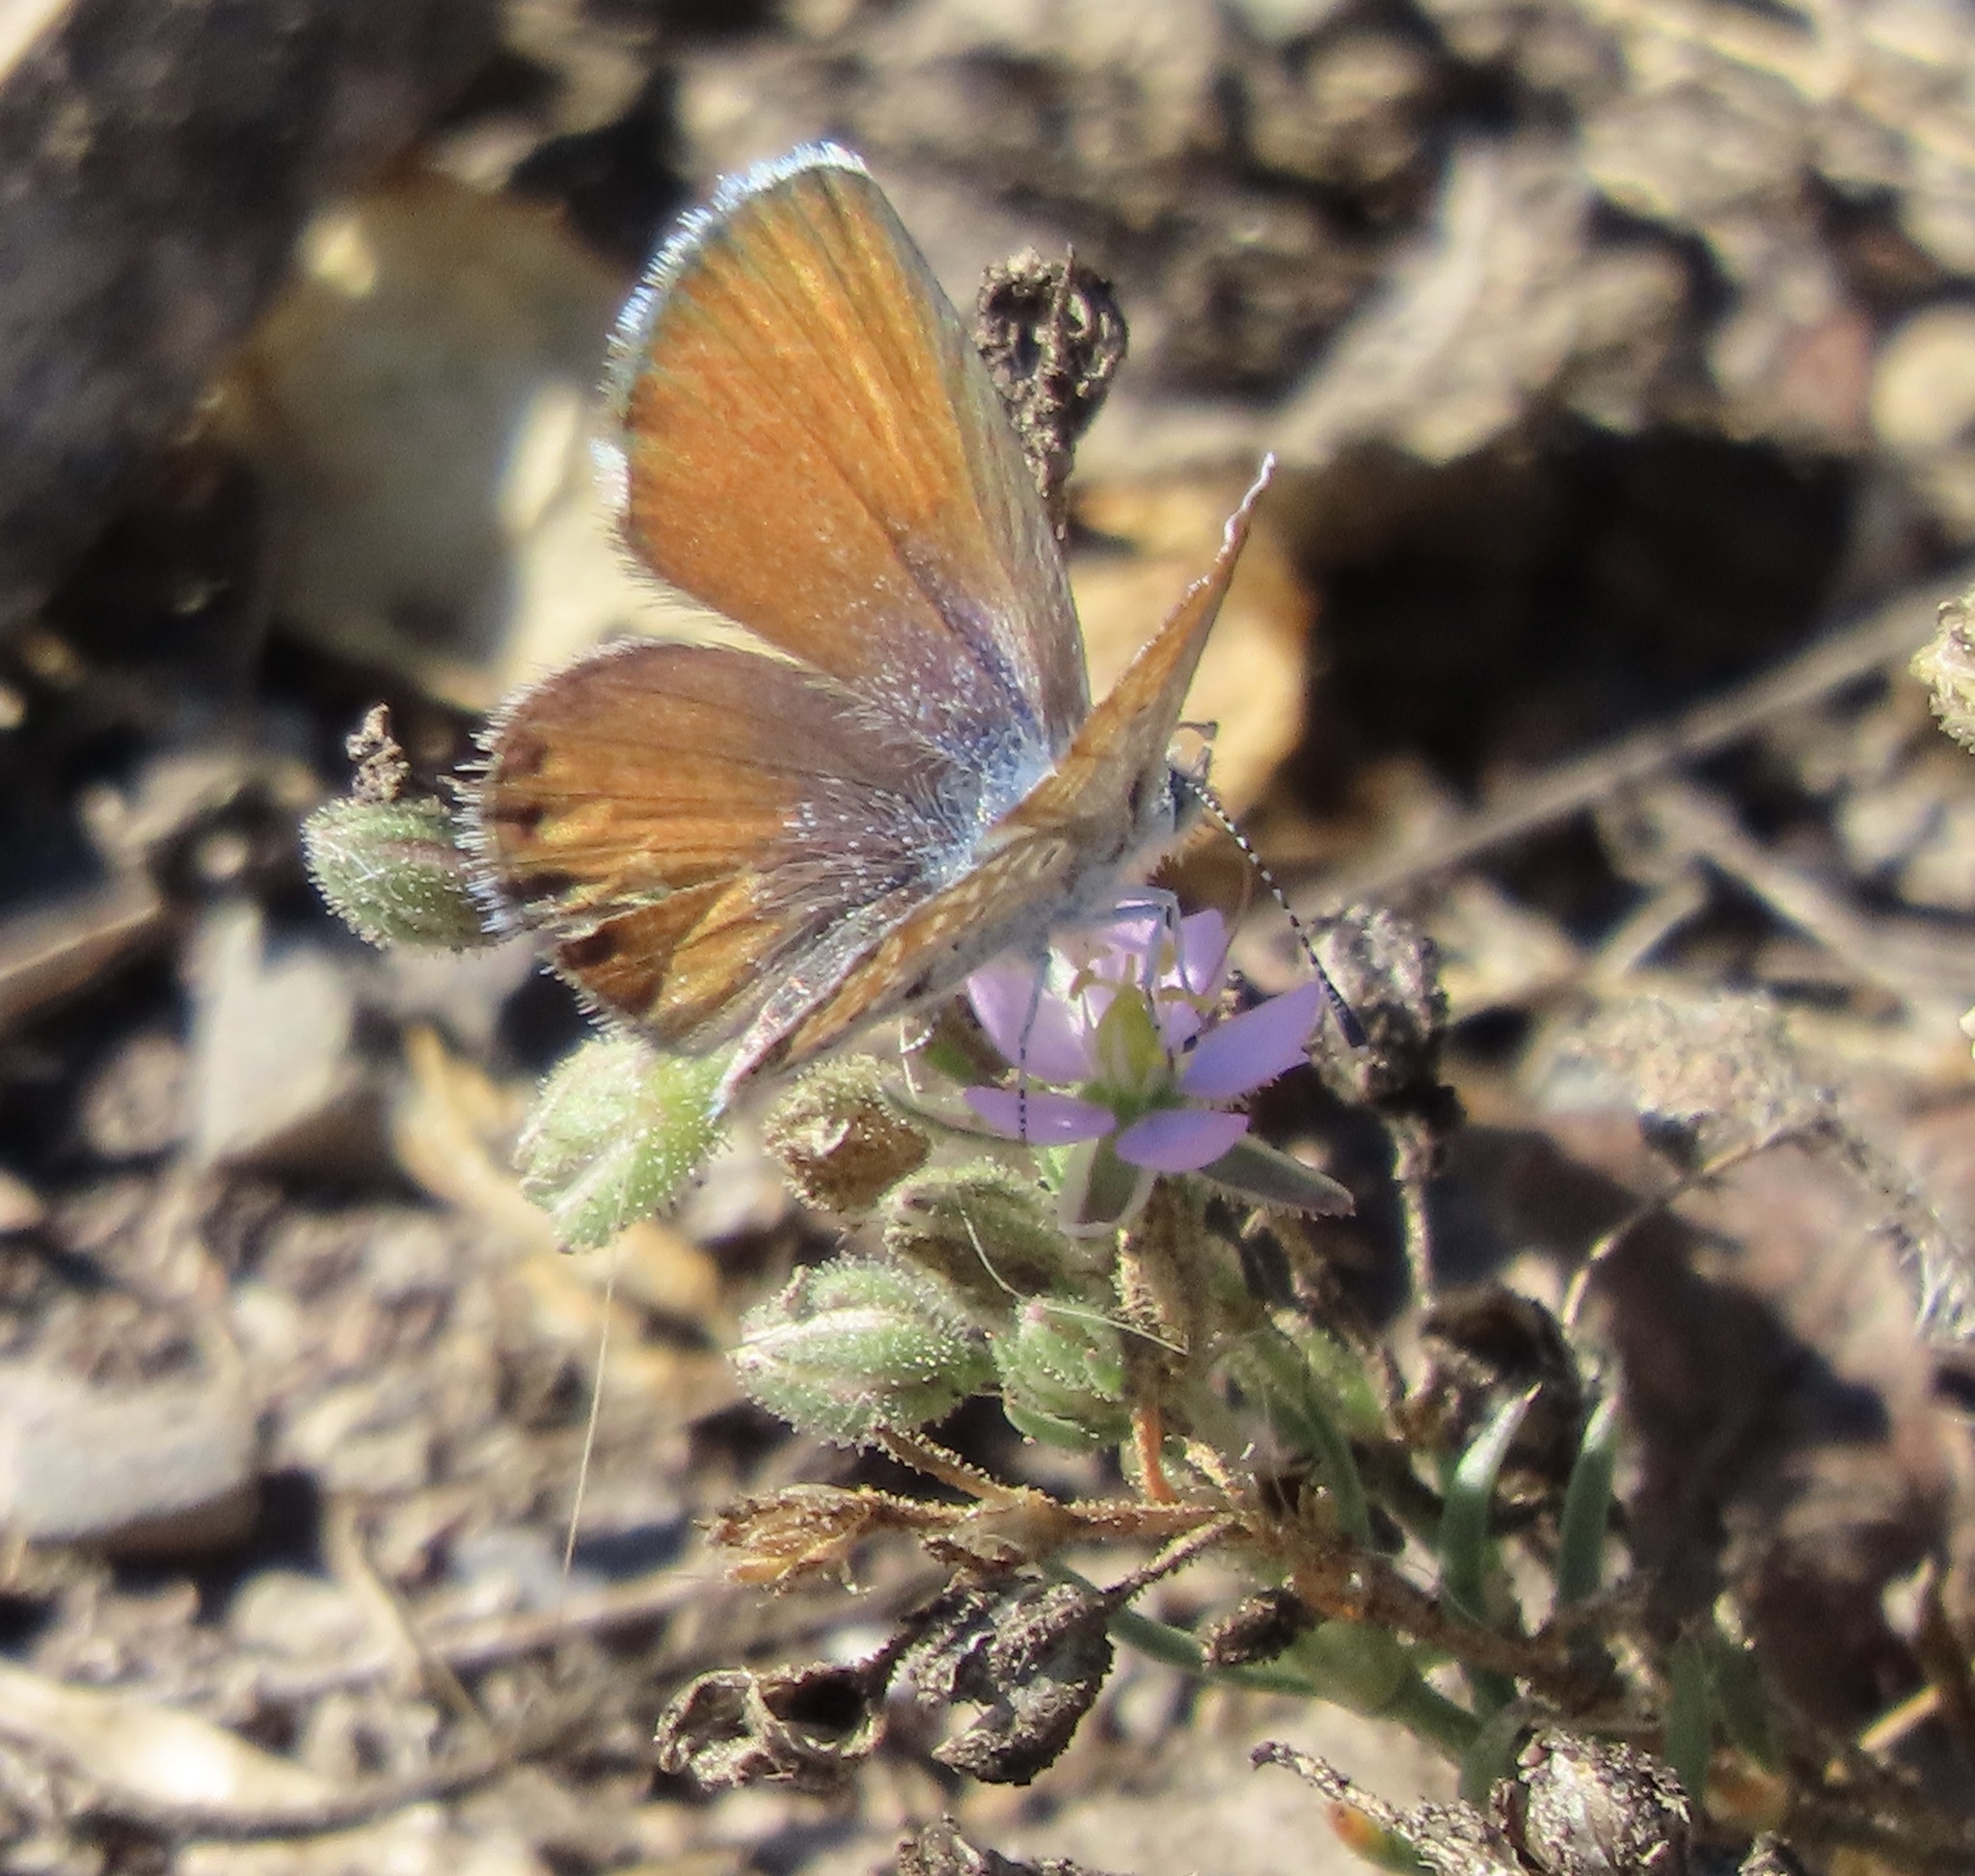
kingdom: Animalia
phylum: Arthropoda
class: Insecta
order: Lepidoptera
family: Lycaenidae
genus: Brephidium
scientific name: Brephidium exilis
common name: Pygmy blue
